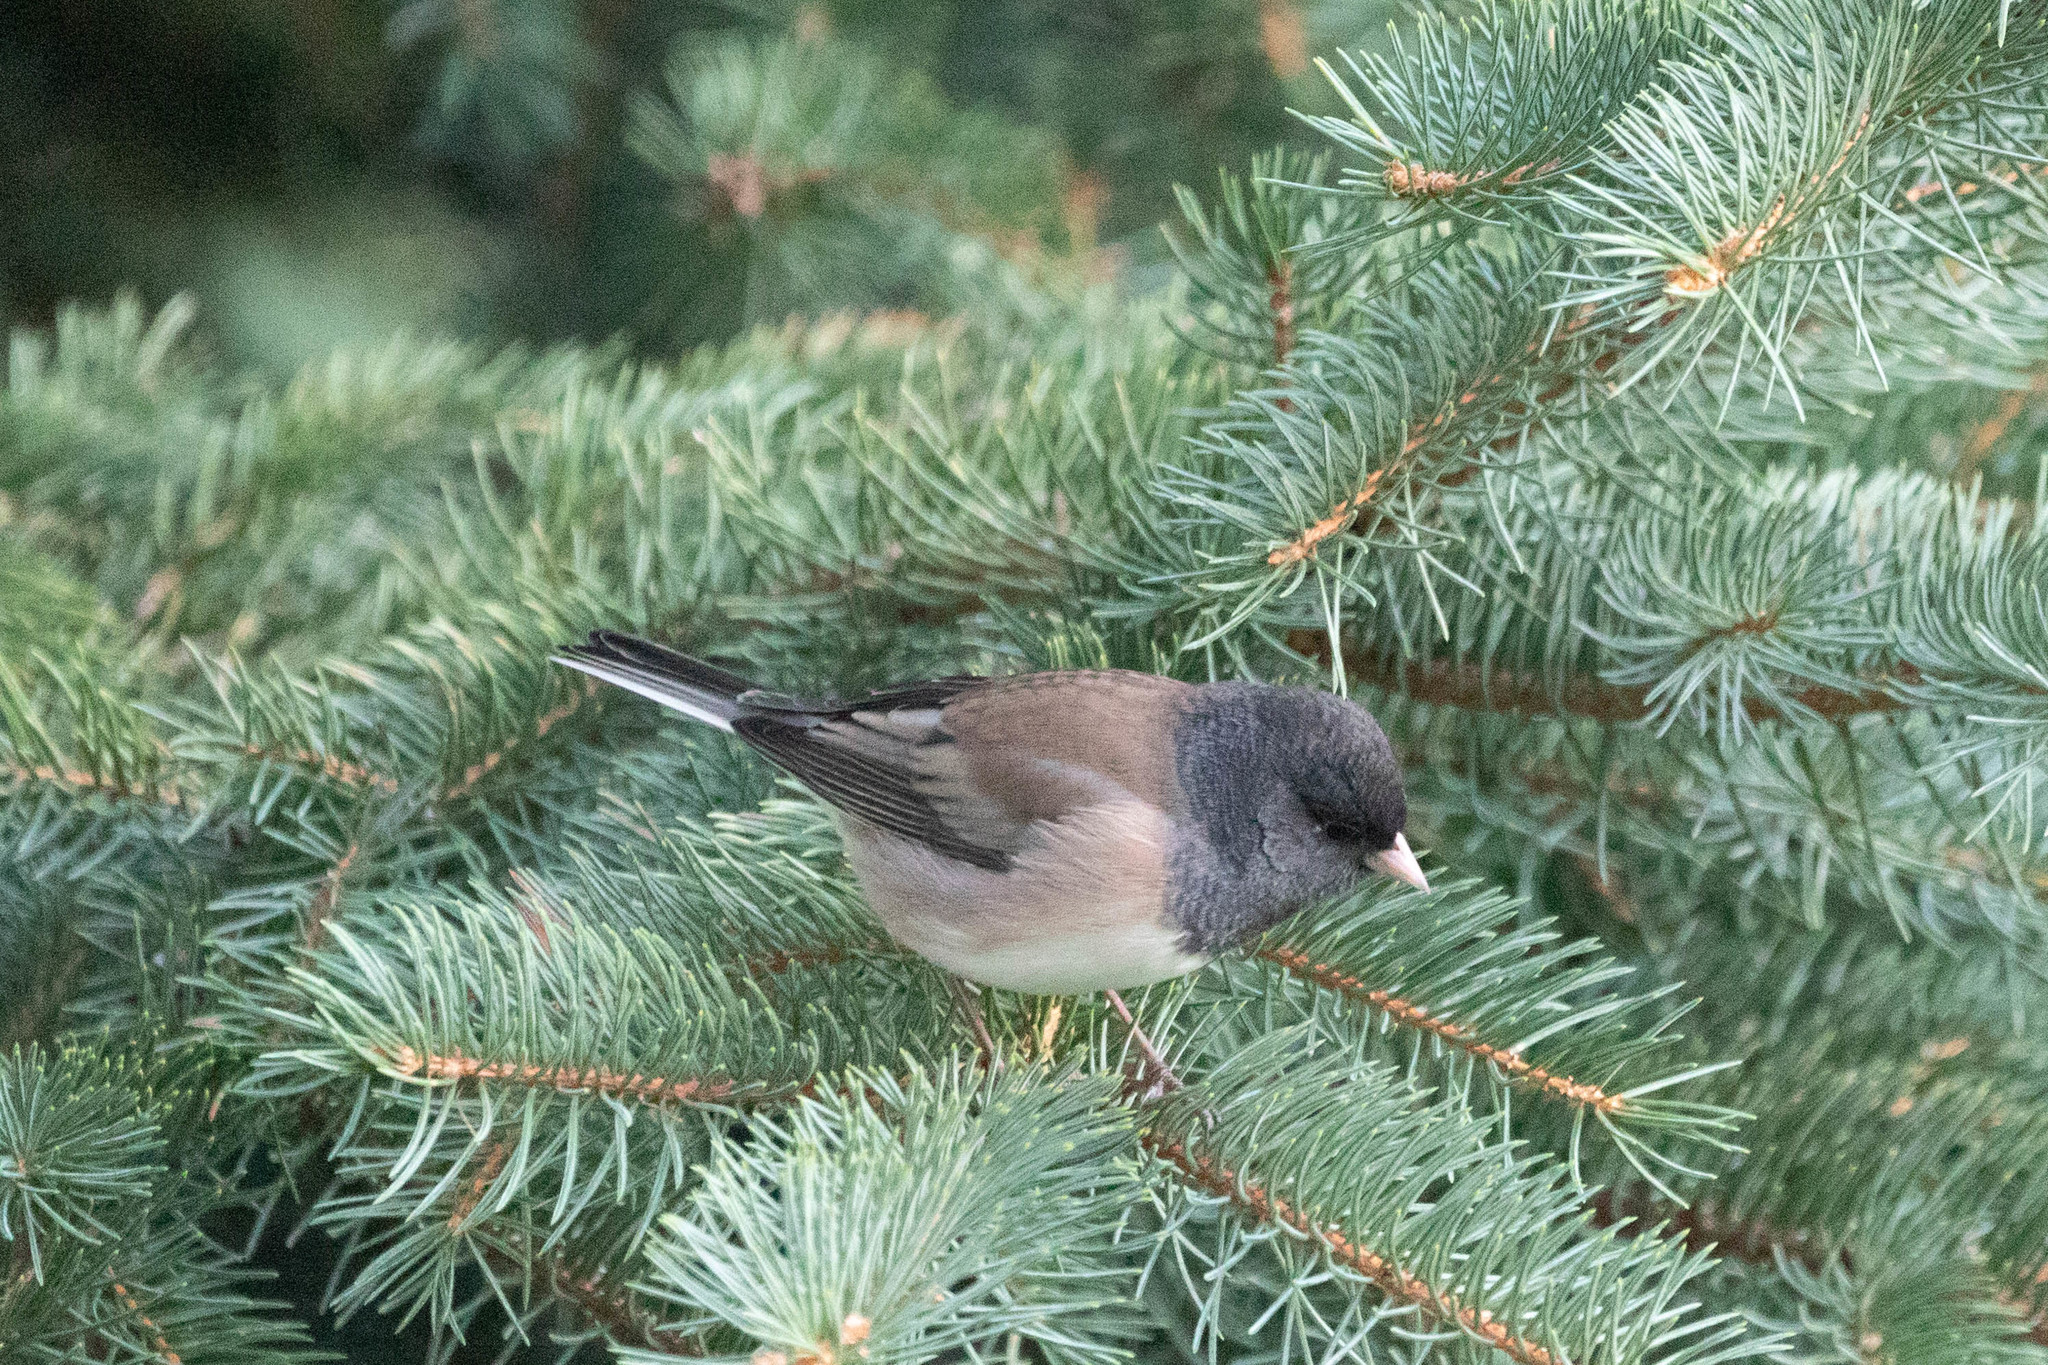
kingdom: Animalia
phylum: Chordata
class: Aves
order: Passeriformes
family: Passerellidae
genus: Junco
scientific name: Junco hyemalis
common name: Dark-eyed junco
